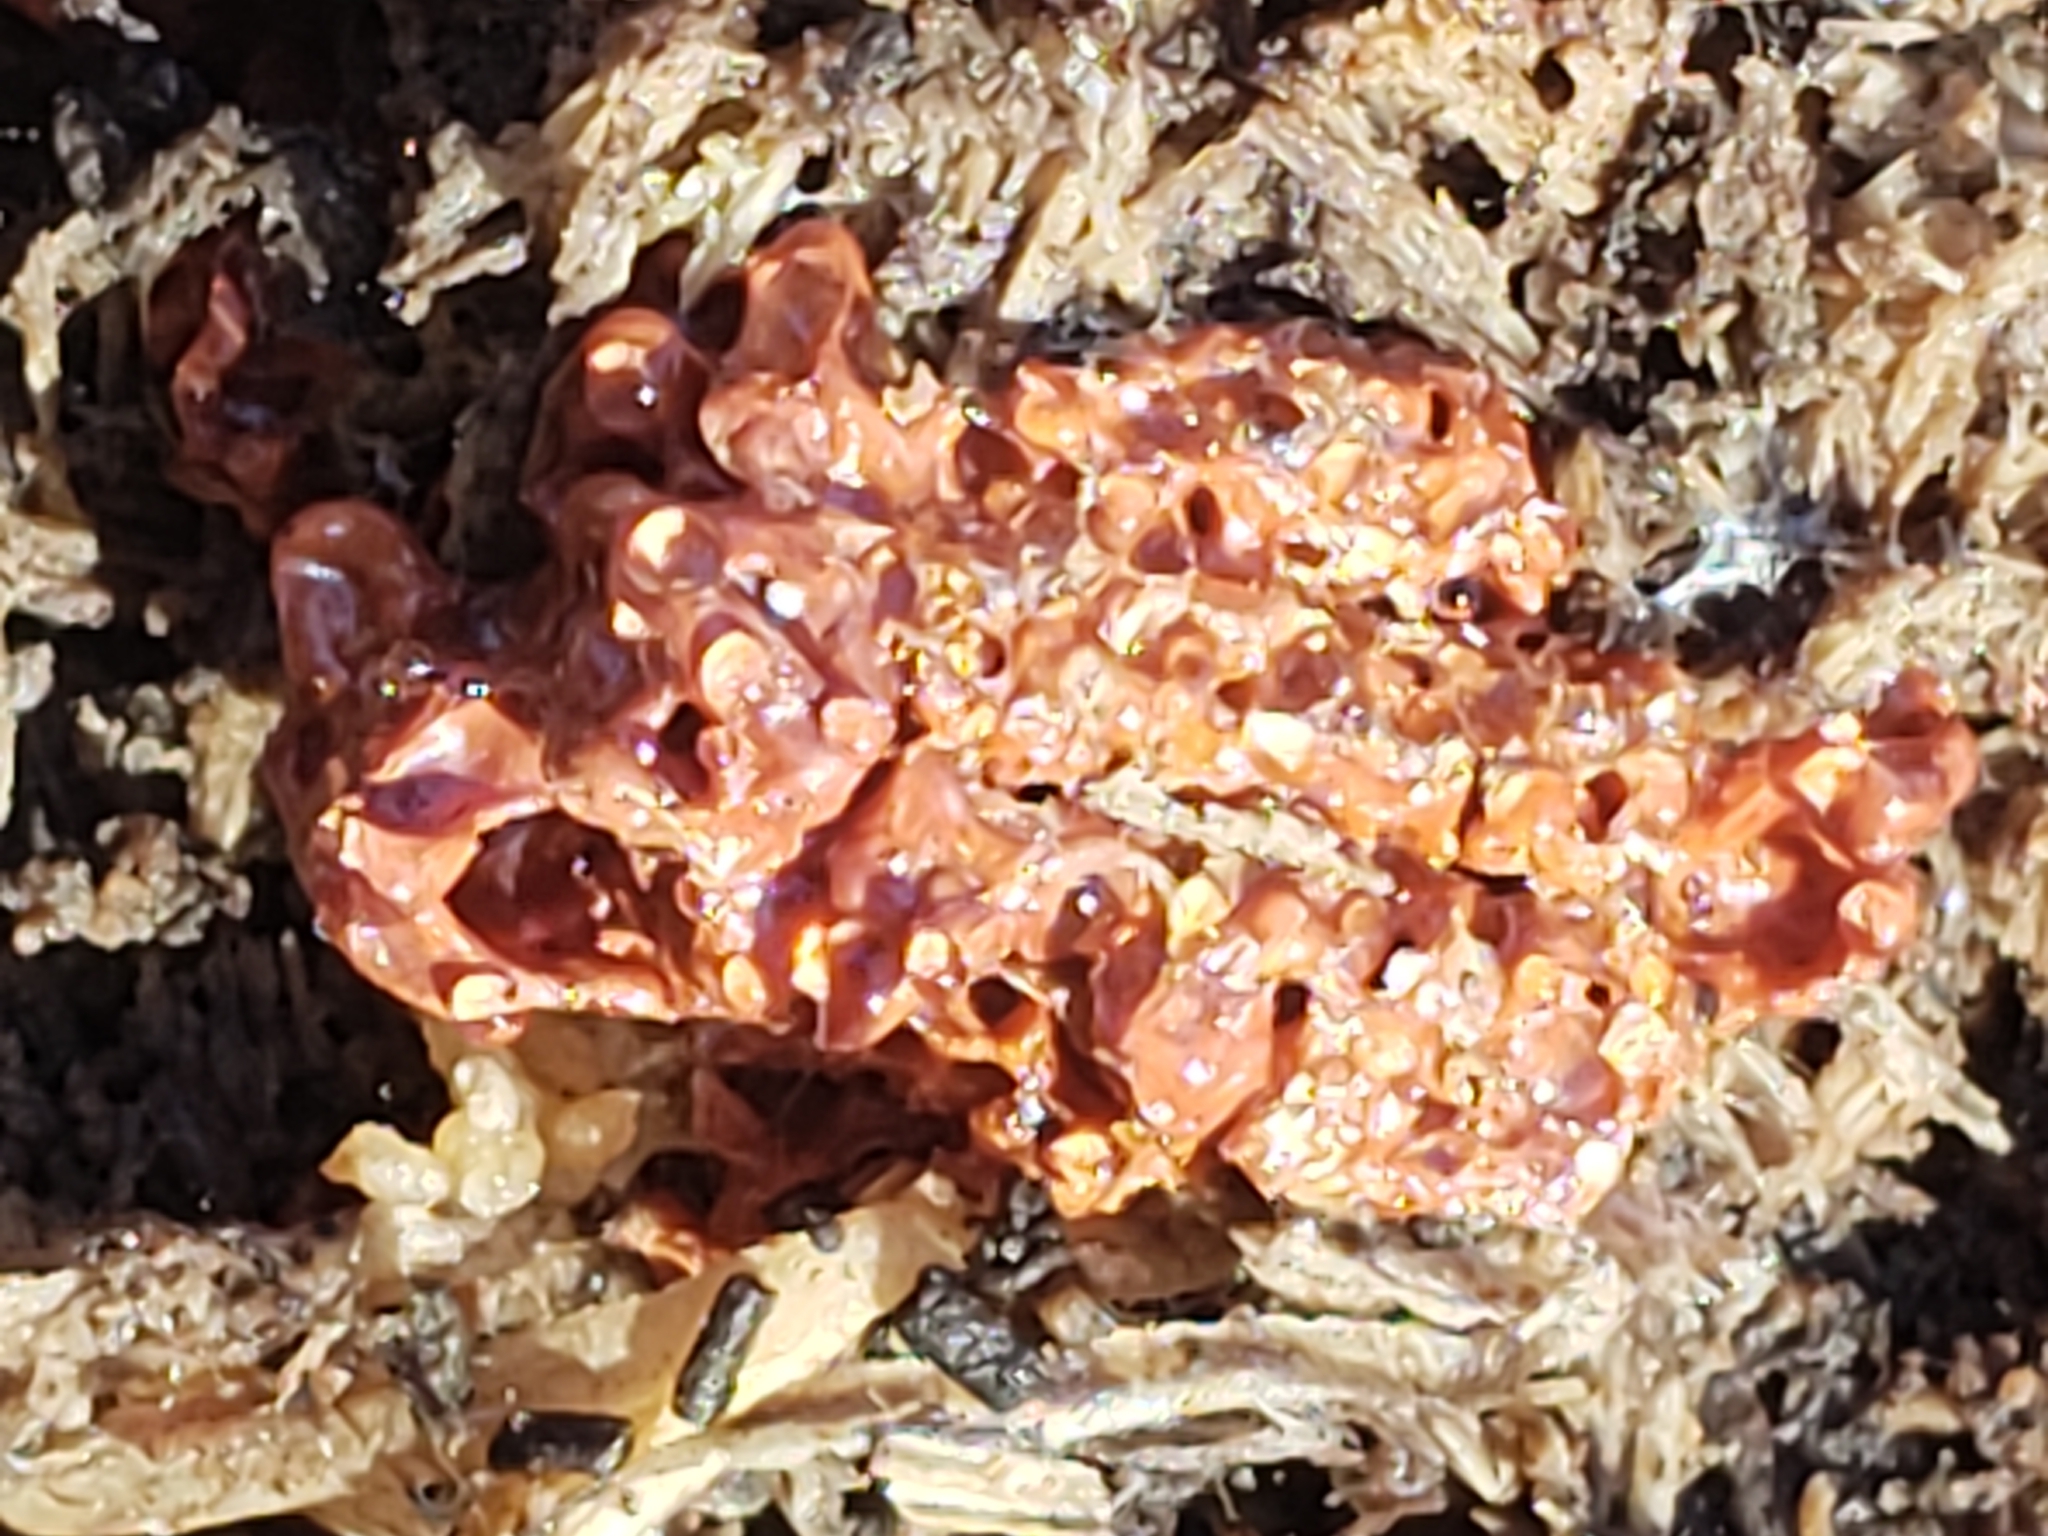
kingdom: Protozoa
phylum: Mycetozoa
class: Myxomycetes
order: Trichiales
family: Trichiaceae
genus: Metatrichia
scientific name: Metatrichia vesparia
